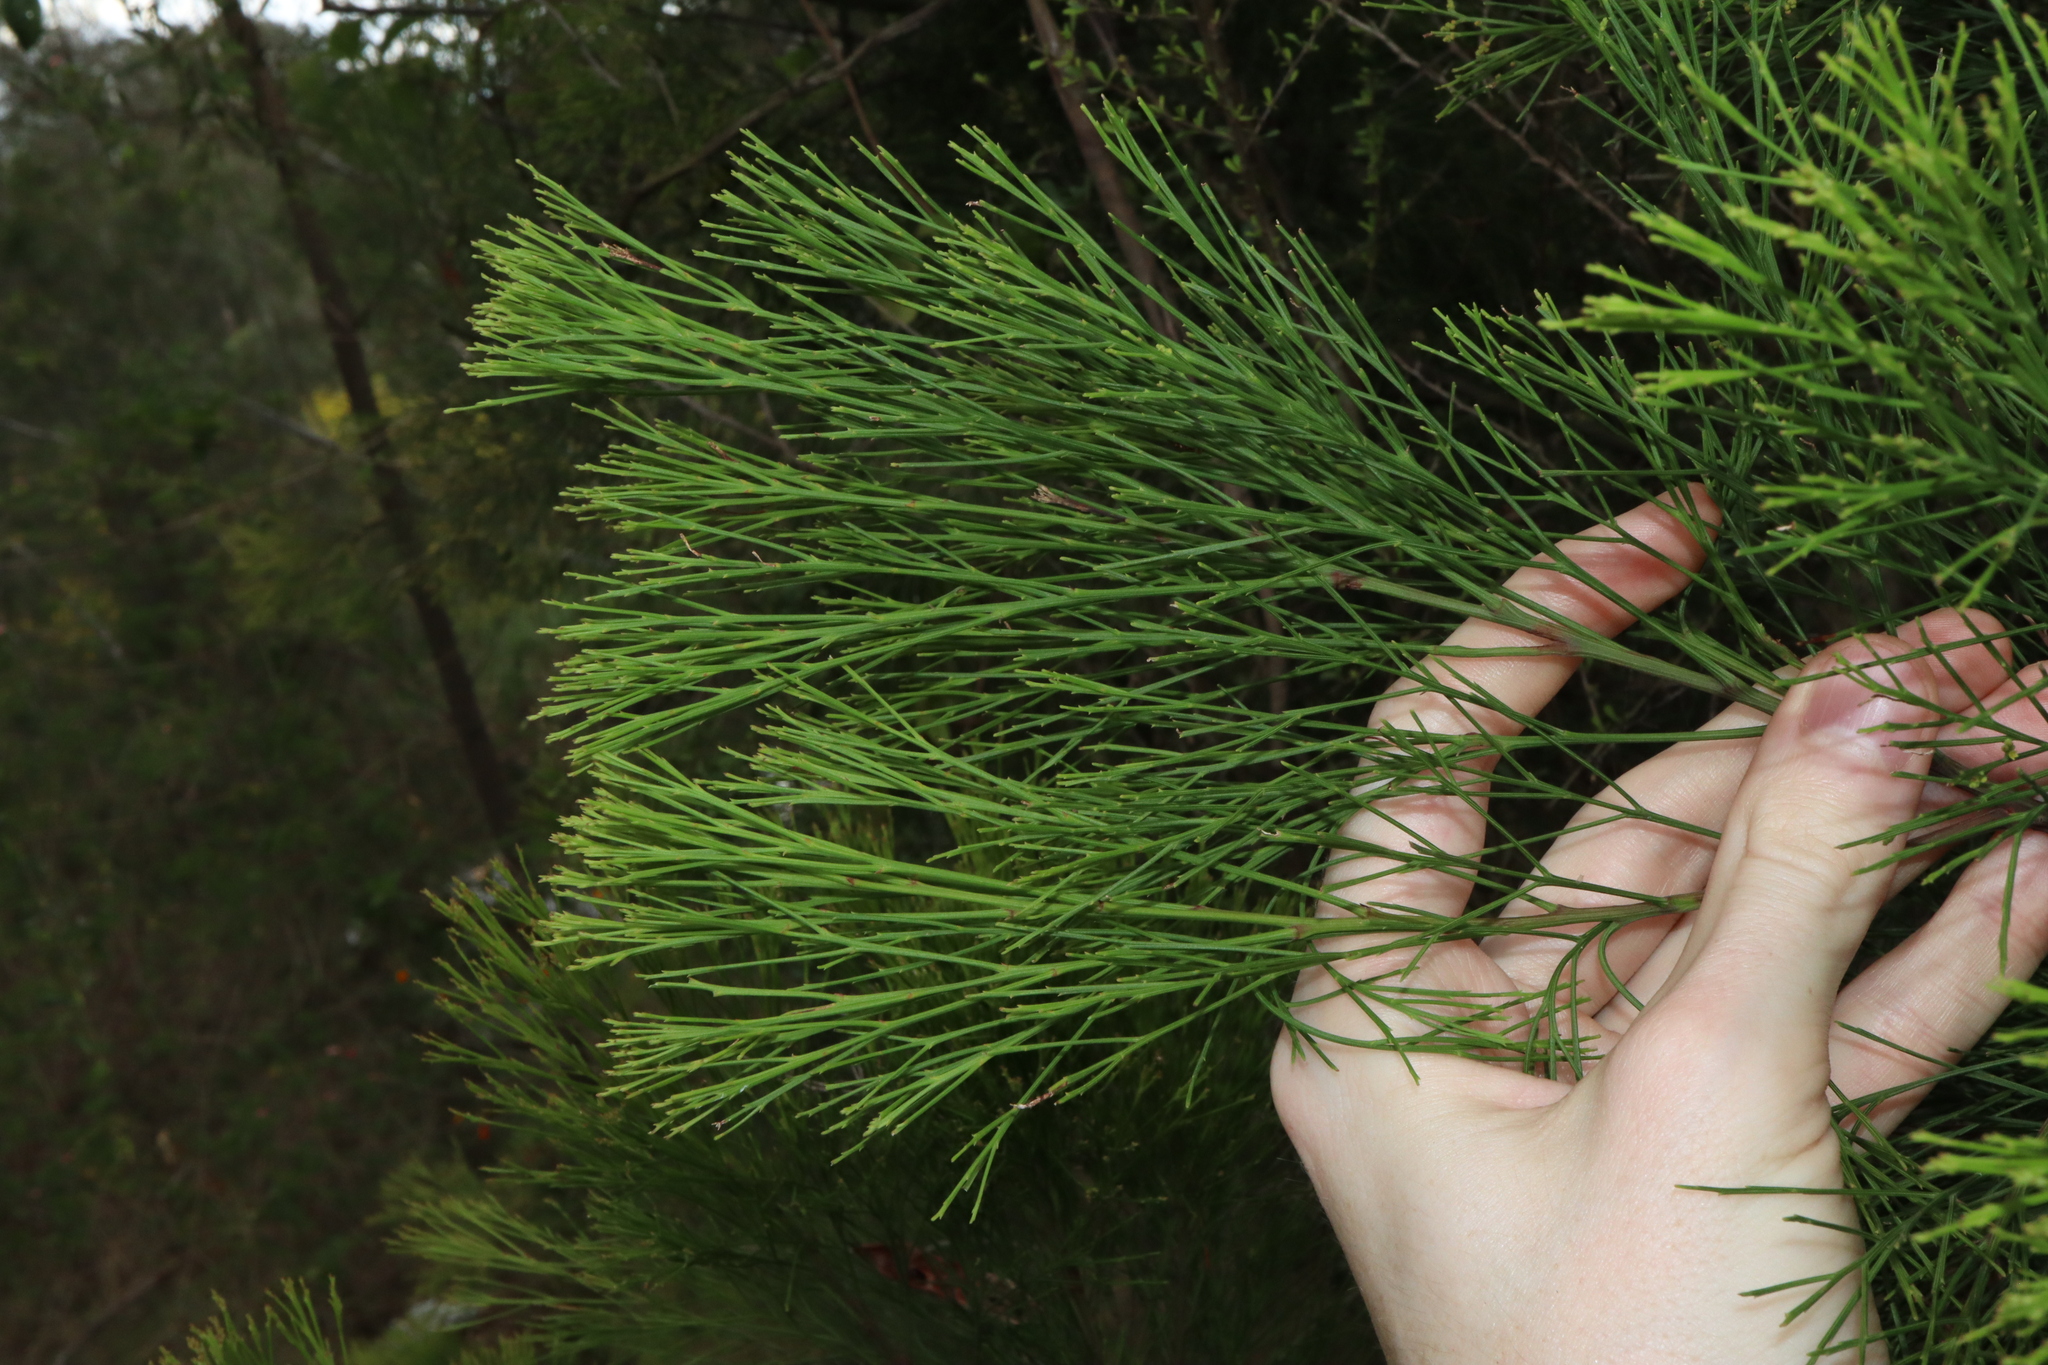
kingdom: Plantae
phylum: Tracheophyta
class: Magnoliopsida
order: Santalales
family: Santalaceae
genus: Exocarpos
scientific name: Exocarpos cupressiformis
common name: Cherry ballart
